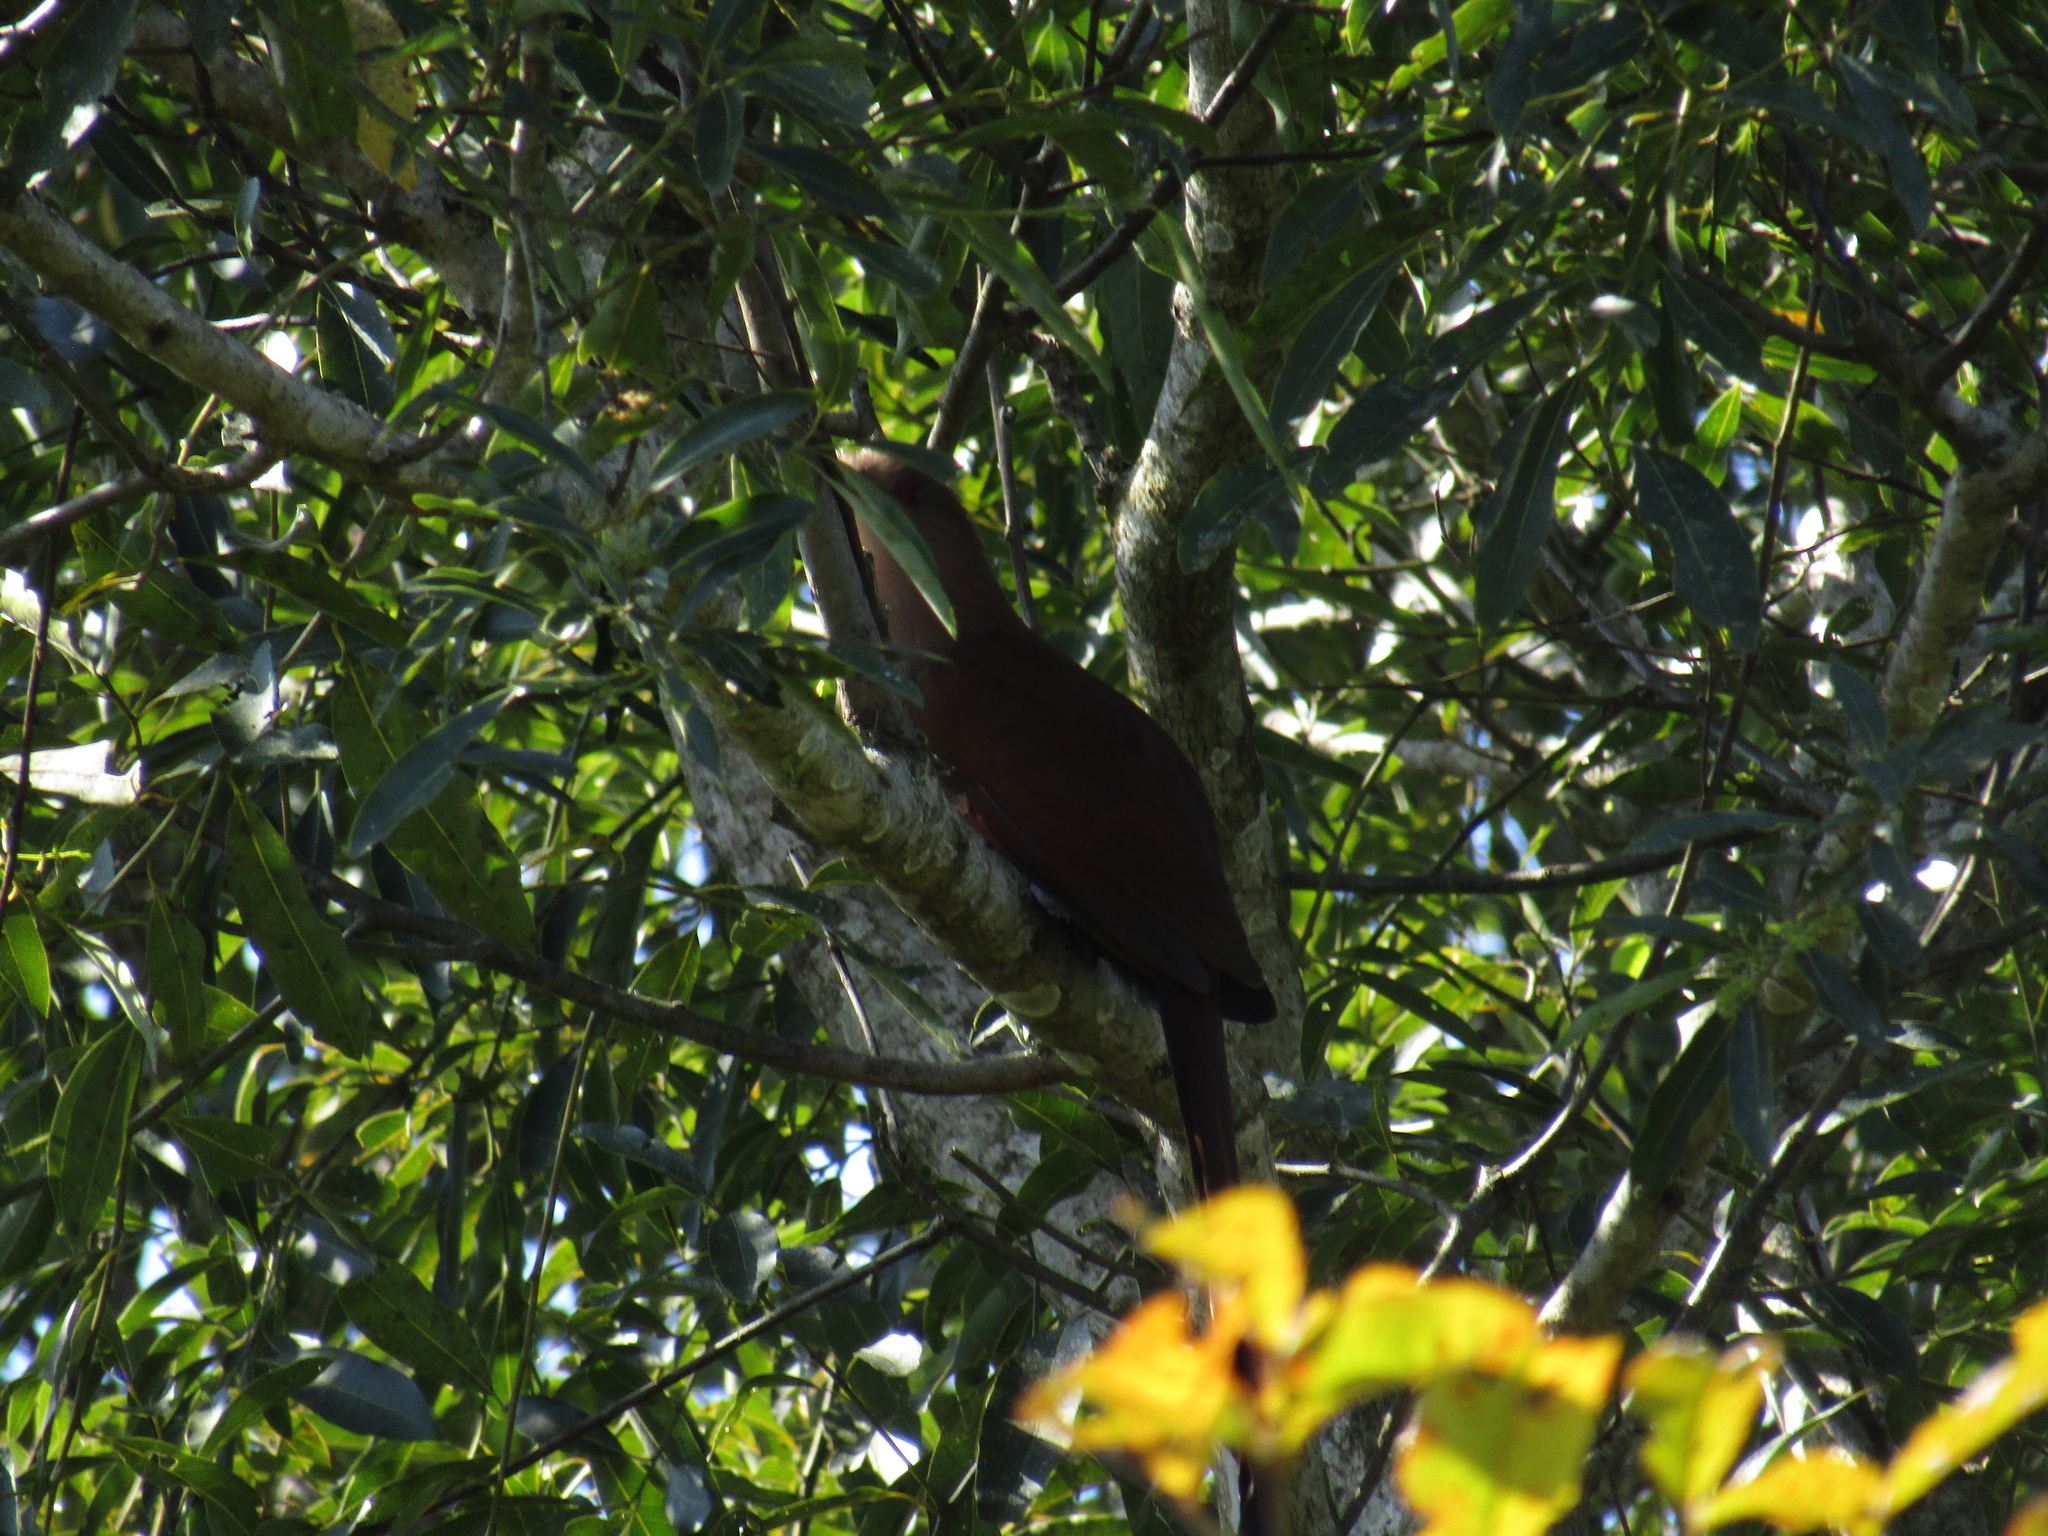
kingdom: Animalia
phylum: Chordata
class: Aves
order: Cuculiformes
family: Cuculidae
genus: Piaya
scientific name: Piaya cayana
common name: Squirrel cuckoo
